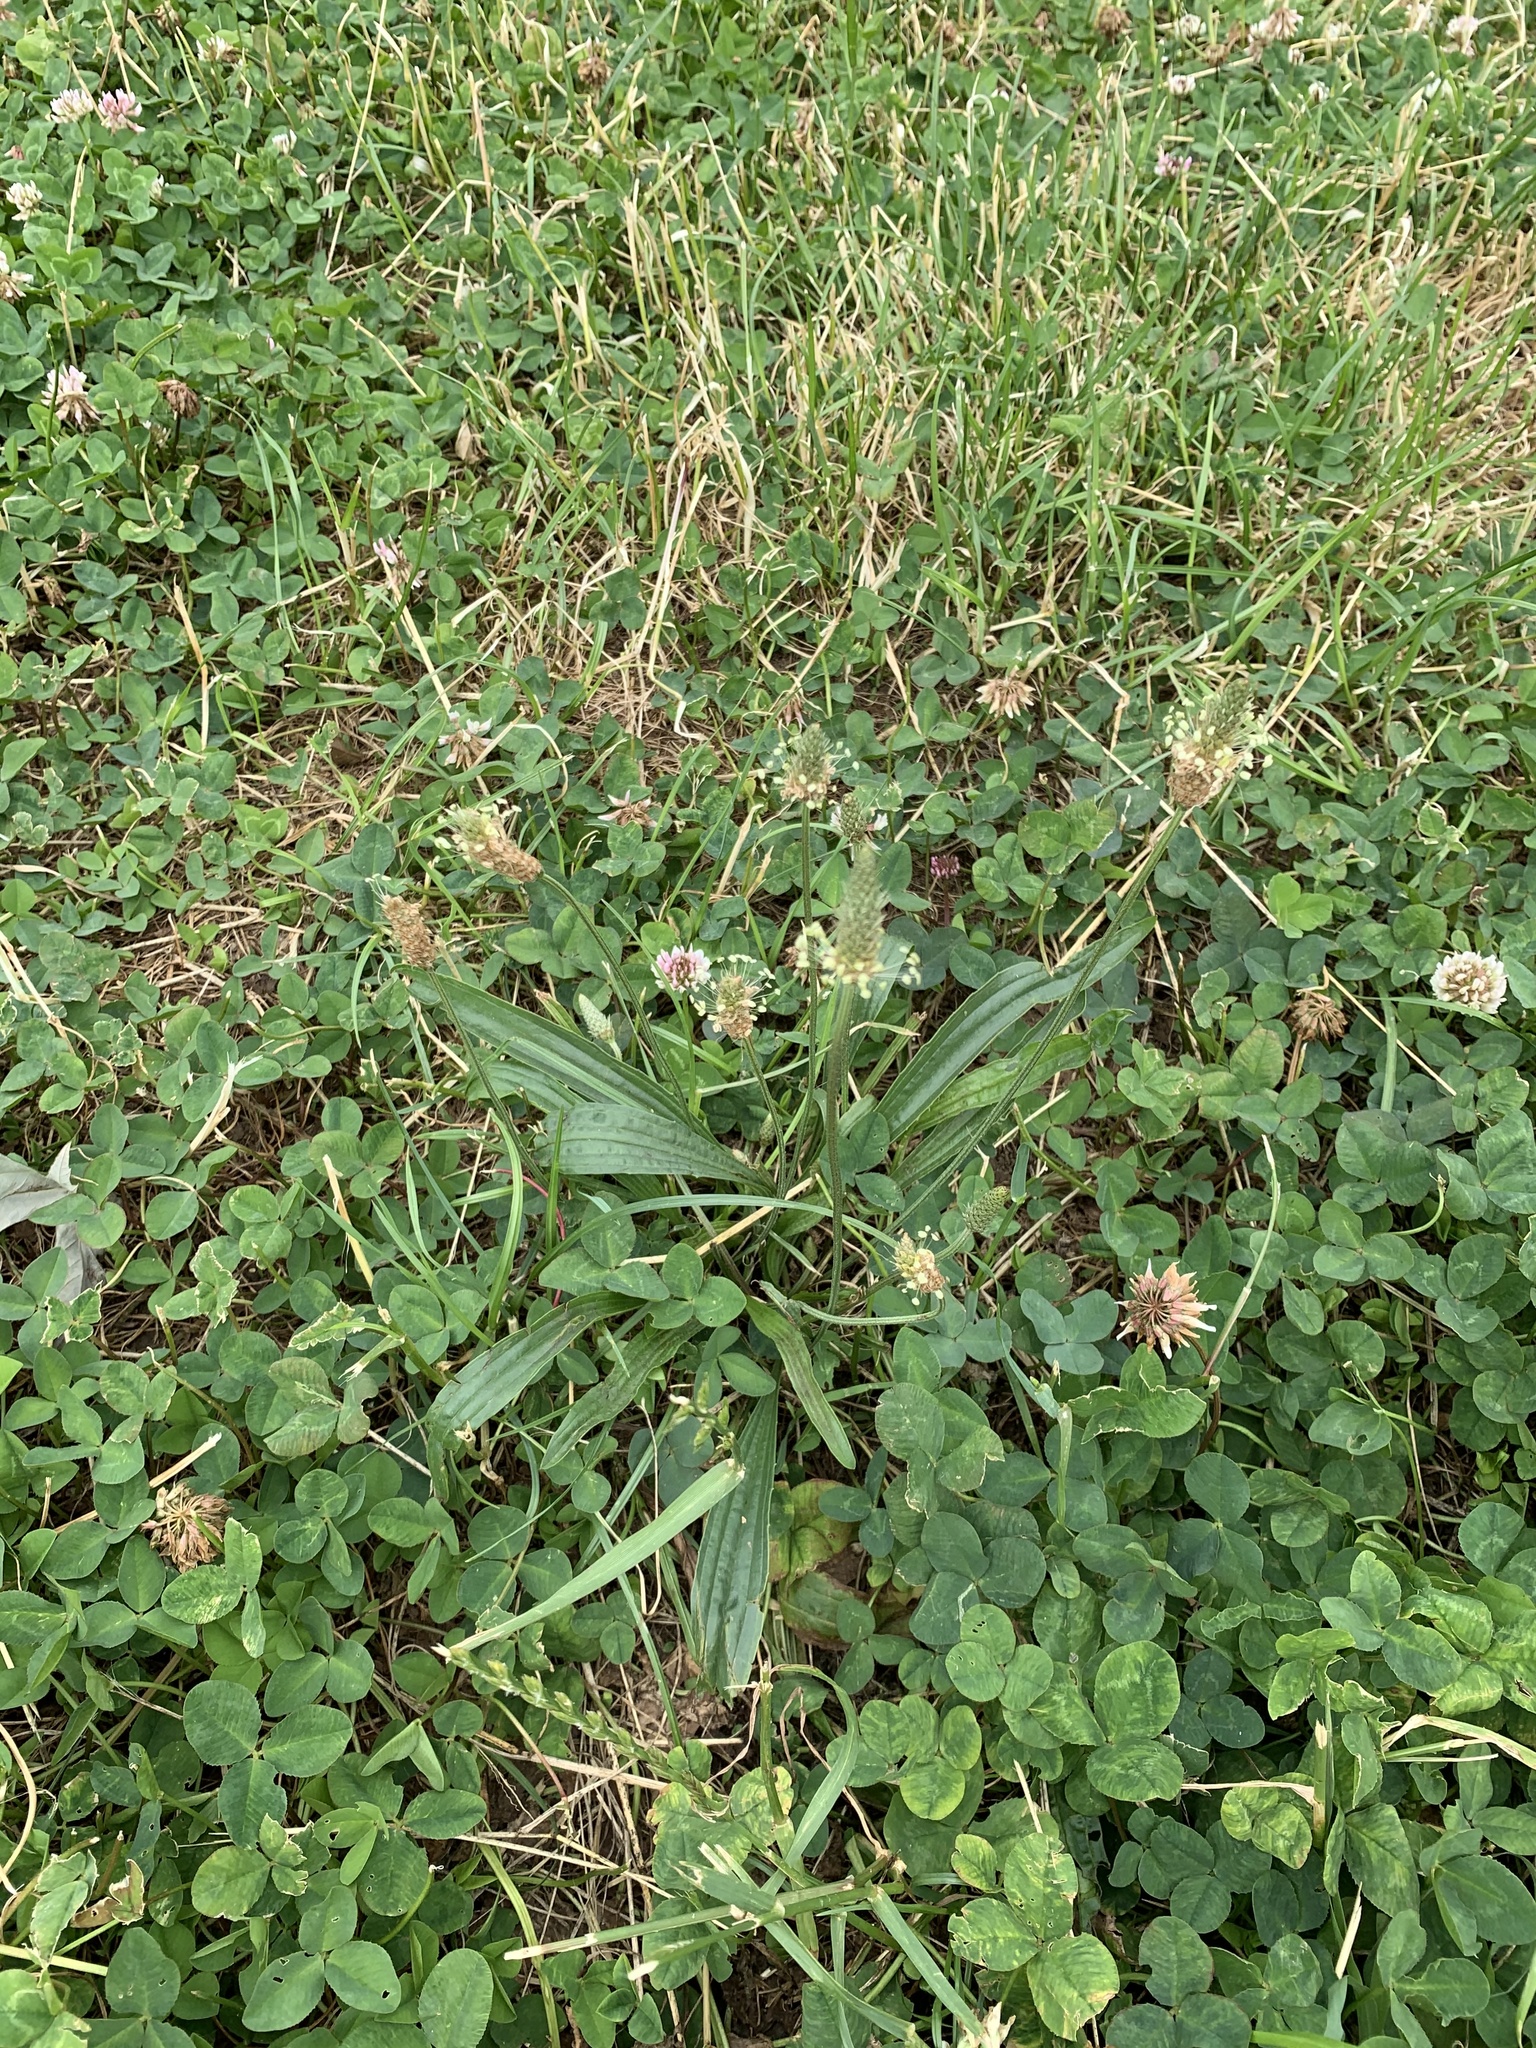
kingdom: Plantae
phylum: Tracheophyta
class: Magnoliopsida
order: Lamiales
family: Plantaginaceae
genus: Plantago
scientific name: Plantago lanceolata
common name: Ribwort plantain
